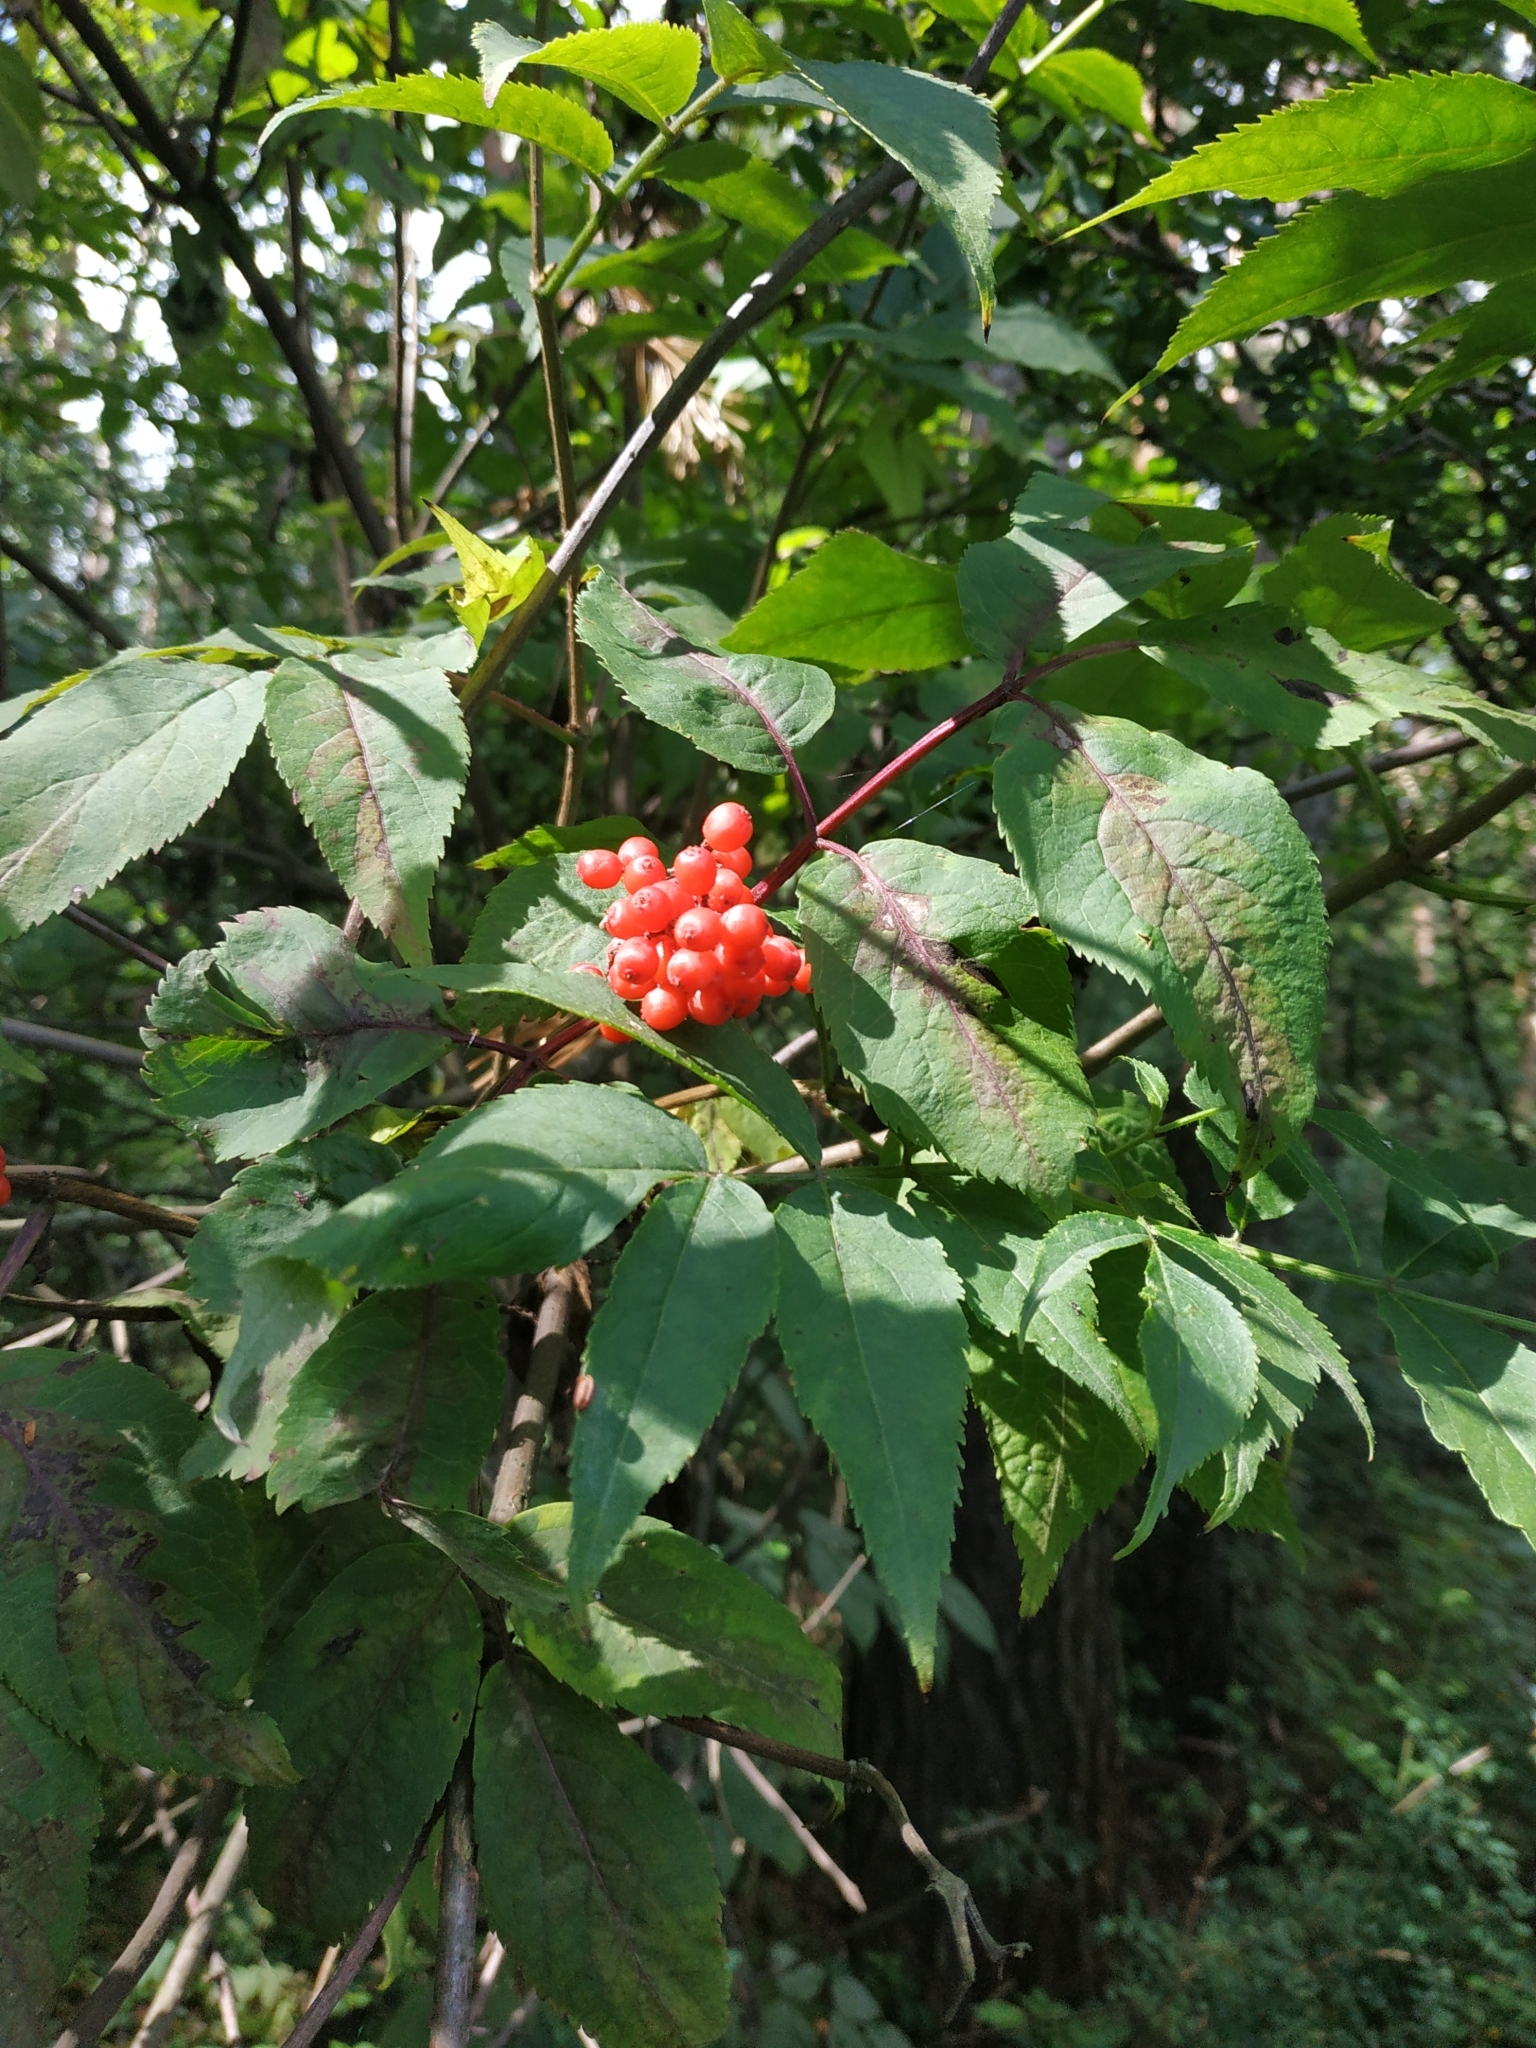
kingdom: Plantae
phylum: Tracheophyta
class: Magnoliopsida
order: Dipsacales
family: Viburnaceae
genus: Sambucus
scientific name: Sambucus racemosa
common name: Red-berried elder
